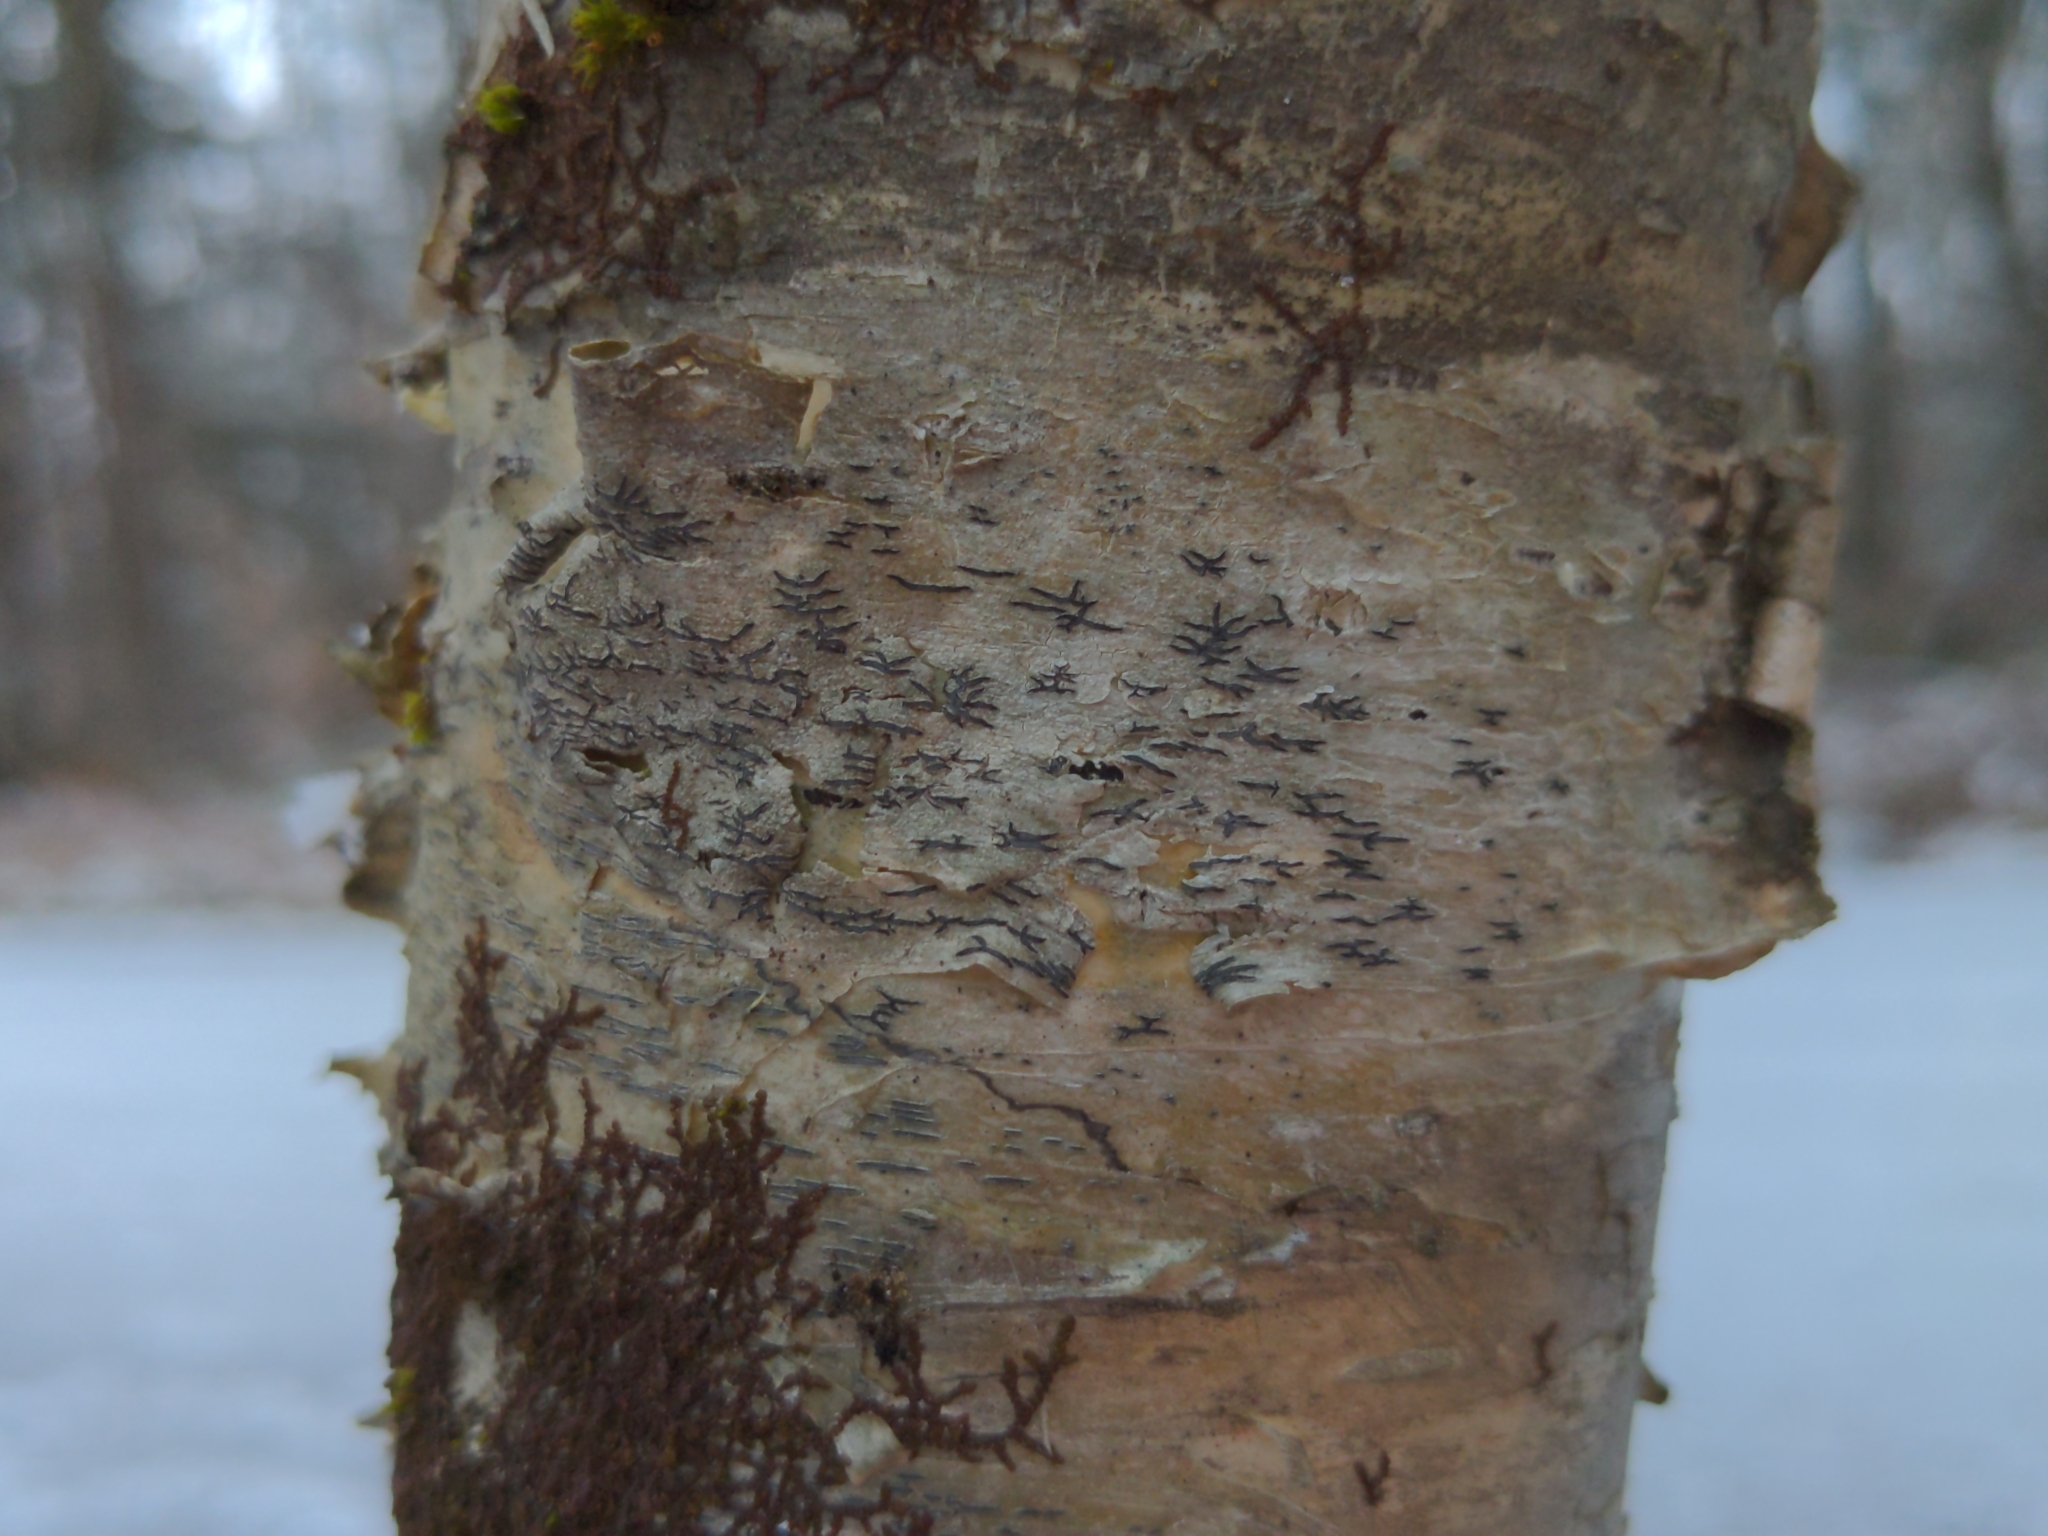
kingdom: Fungi
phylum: Ascomycota
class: Lecanoromycetes
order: Ostropales
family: Graphidaceae
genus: Graphis
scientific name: Graphis scripta
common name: Script lichen
